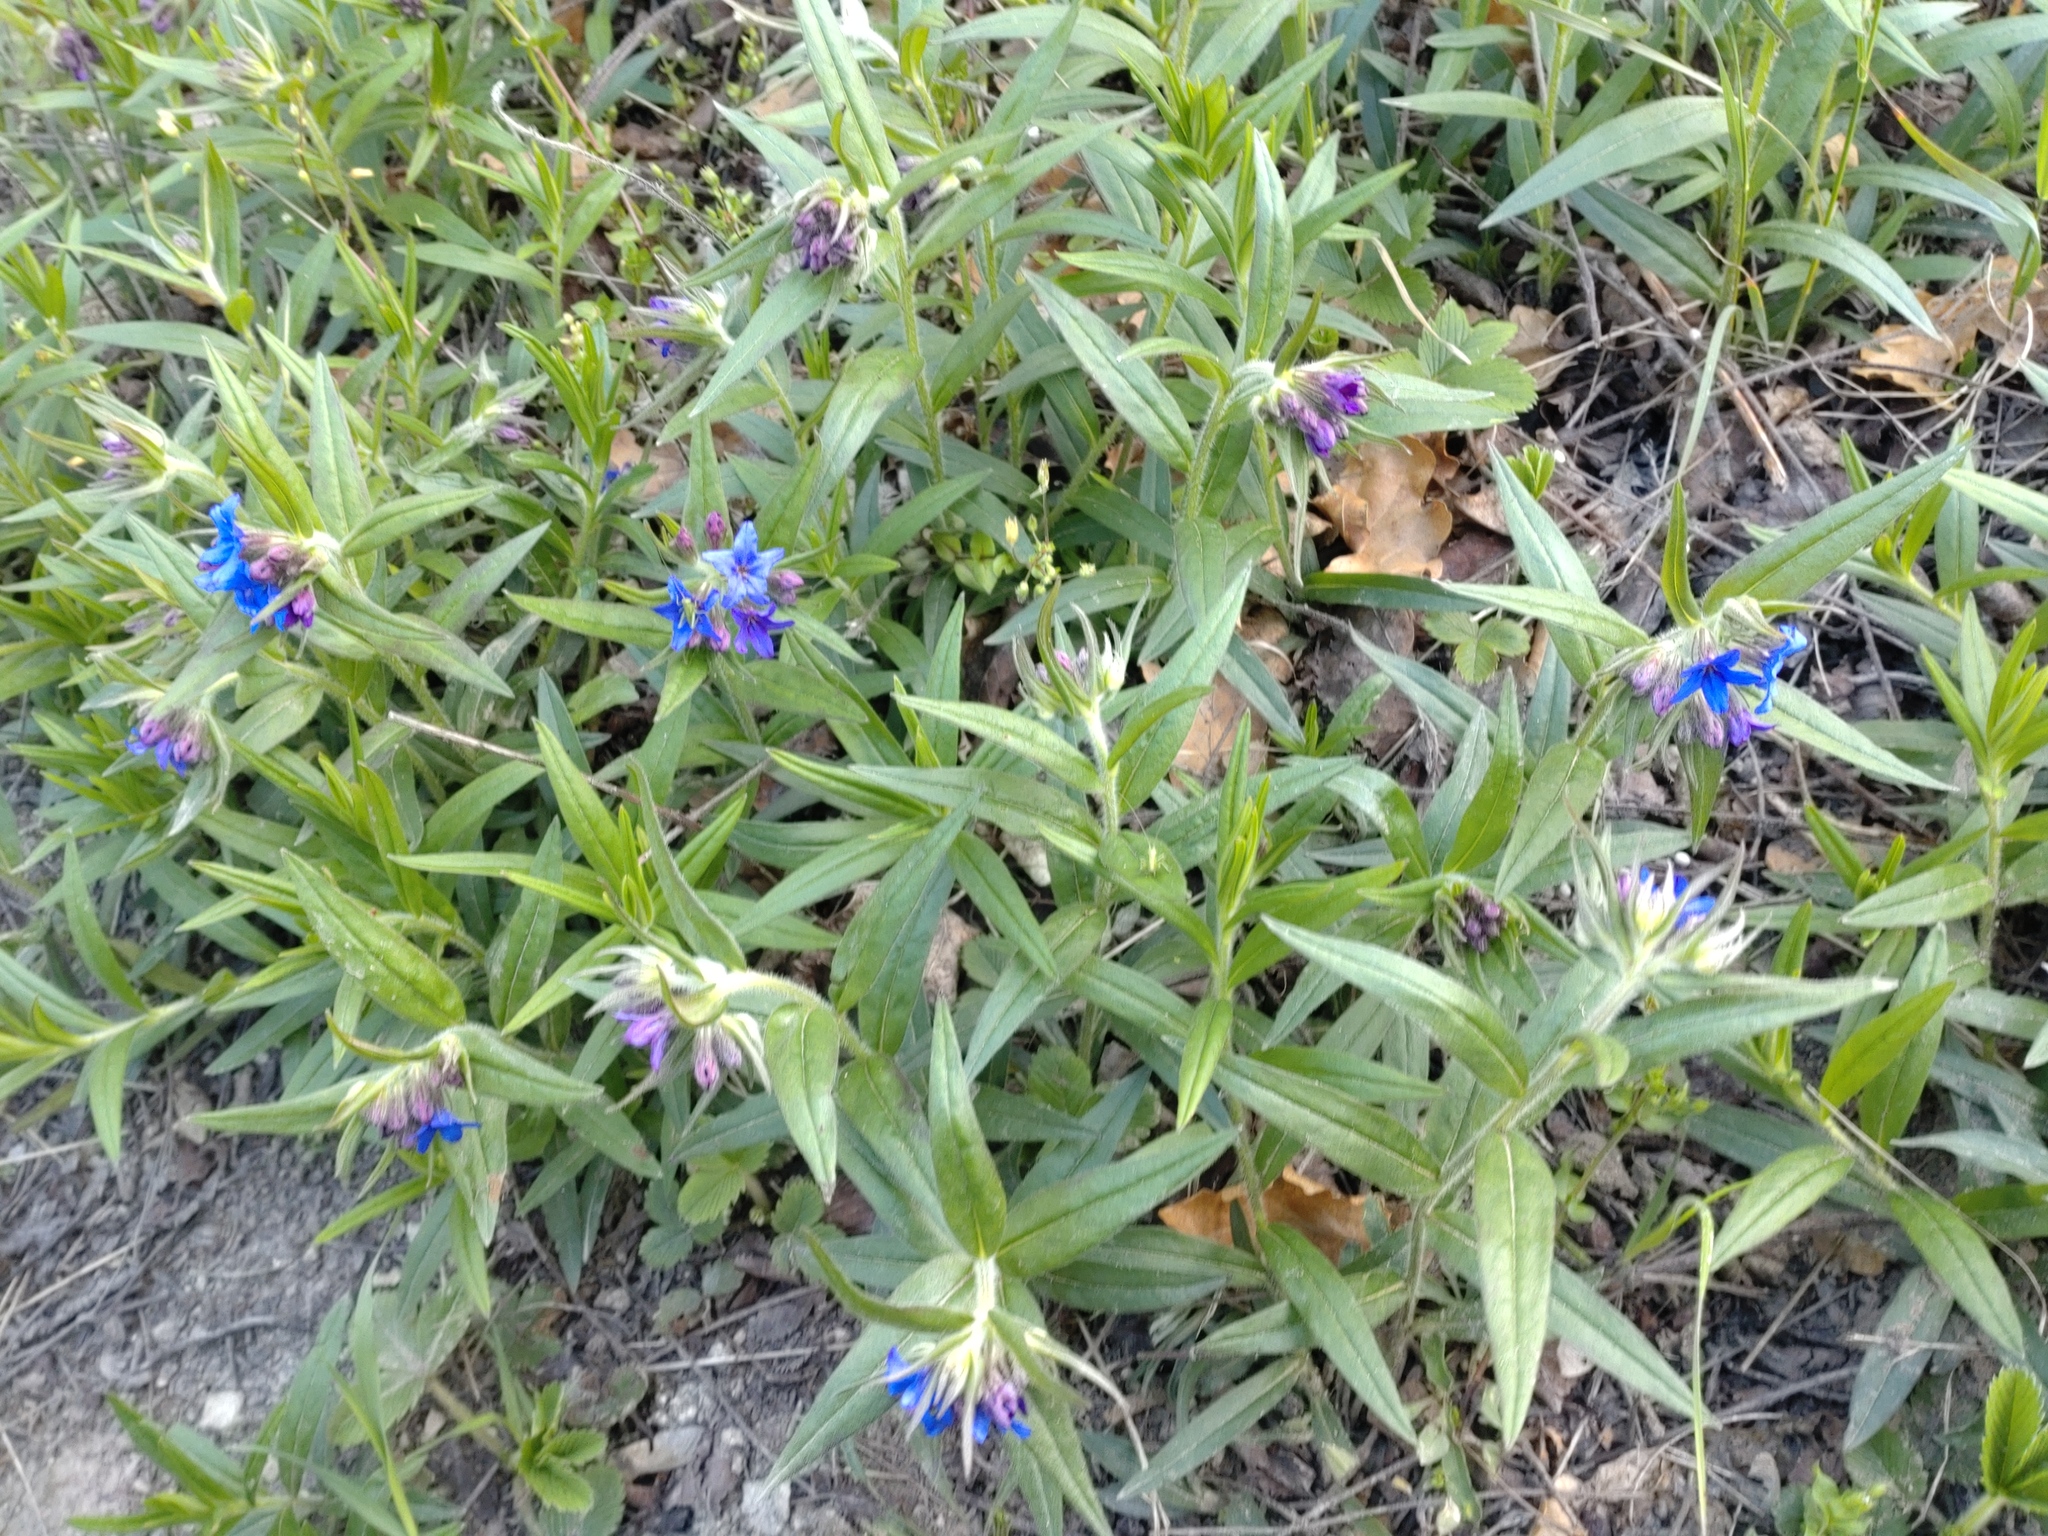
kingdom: Plantae
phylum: Tracheophyta
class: Magnoliopsida
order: Boraginales
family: Boraginaceae
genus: Aegonychon
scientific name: Aegonychon purpurocaeruleum
